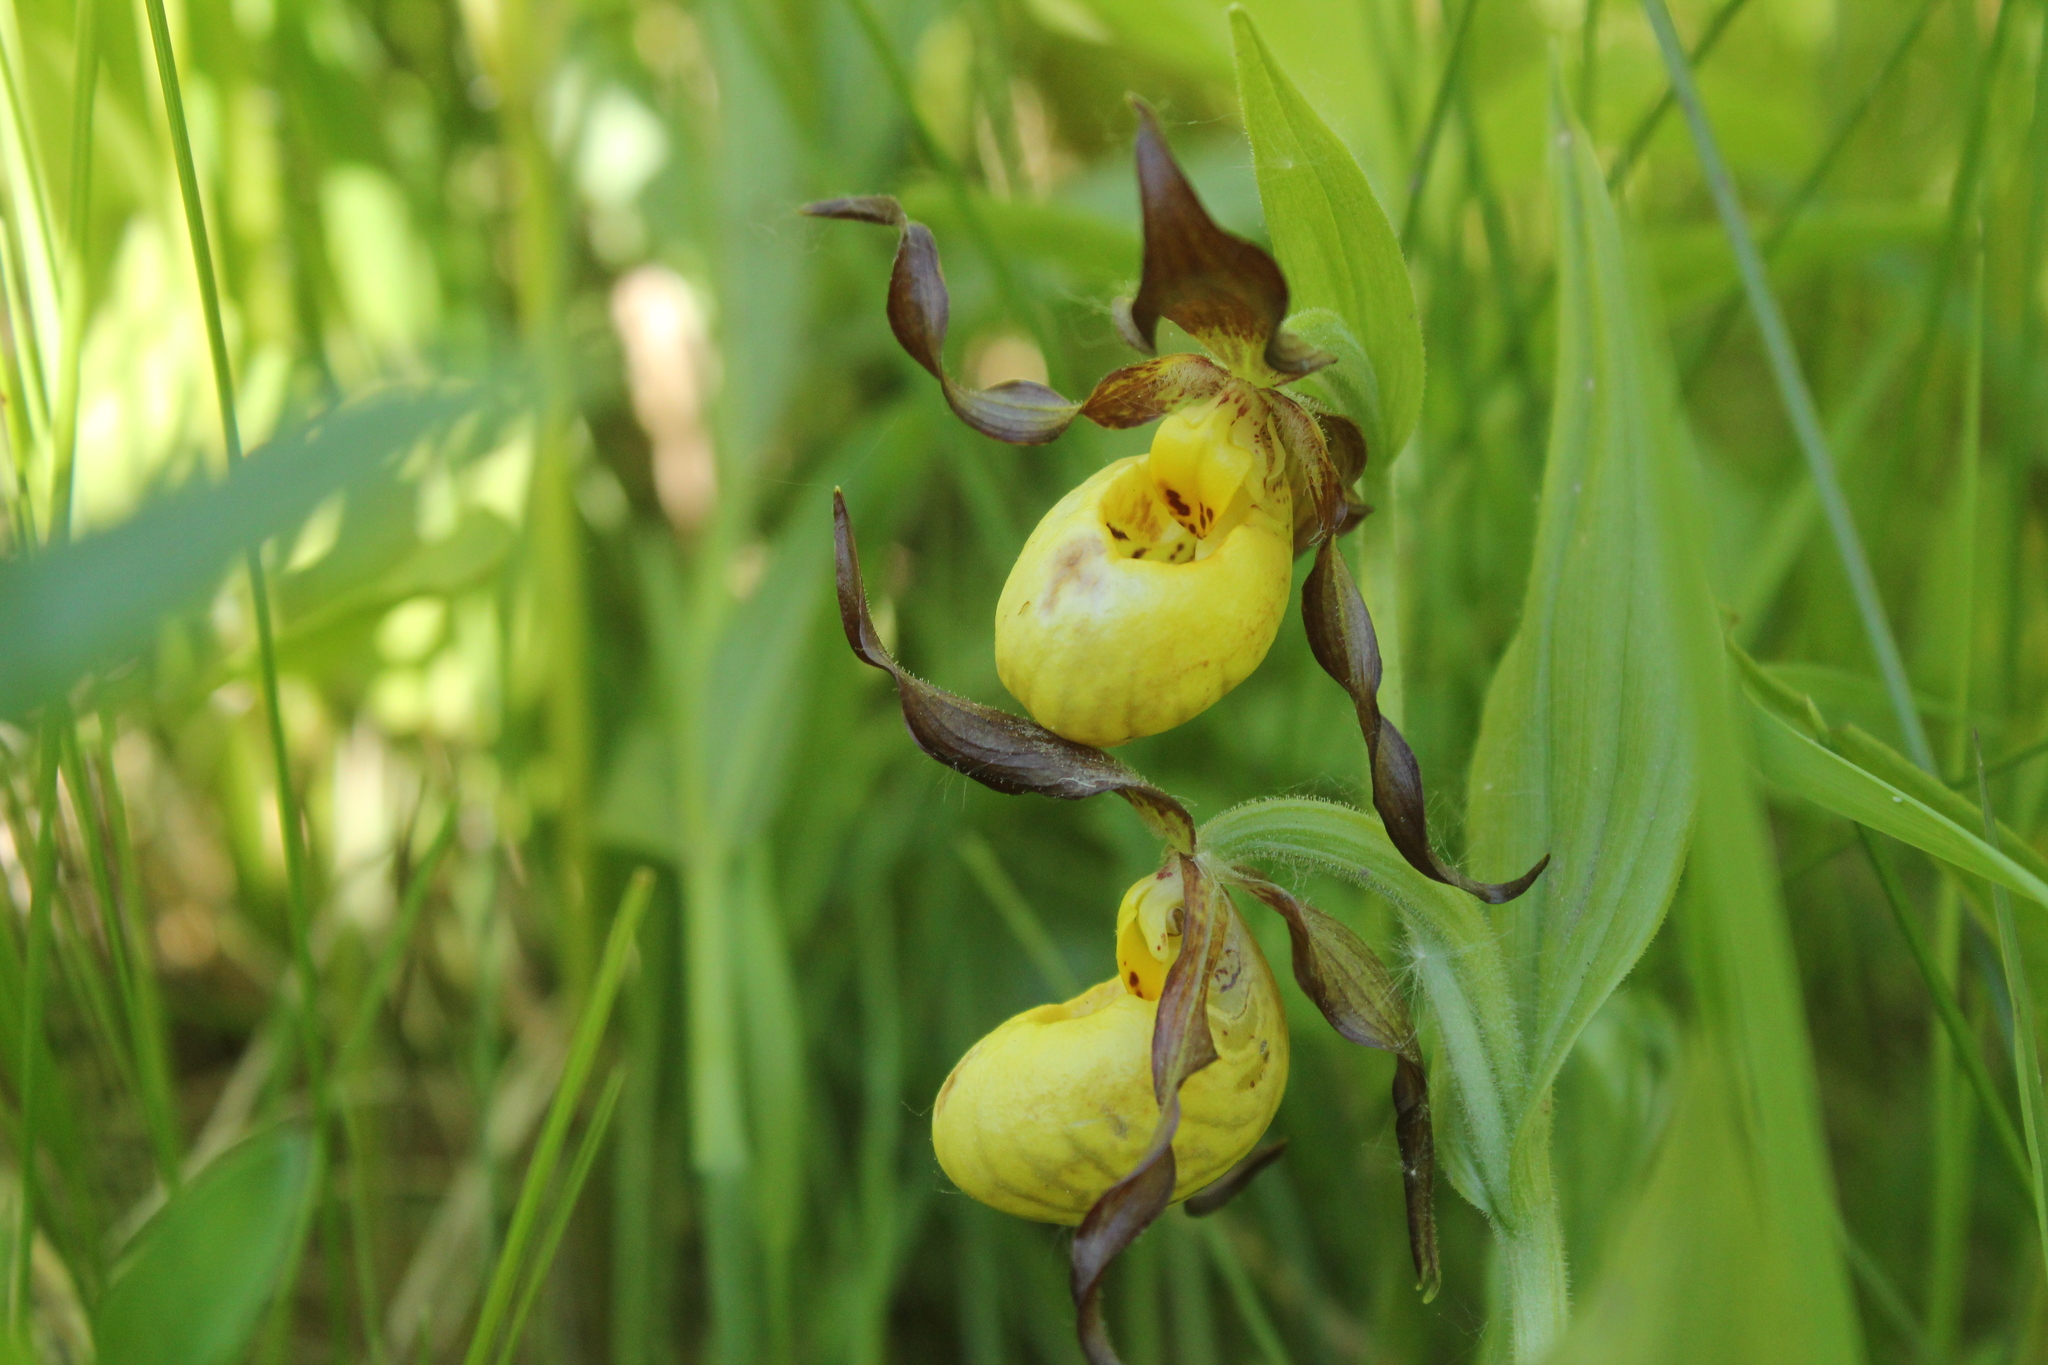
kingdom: Plantae
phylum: Tracheophyta
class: Liliopsida
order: Asparagales
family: Orchidaceae
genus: Cypripedium
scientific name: Cypripedium parviflorum
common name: American yellow lady's-slipper
